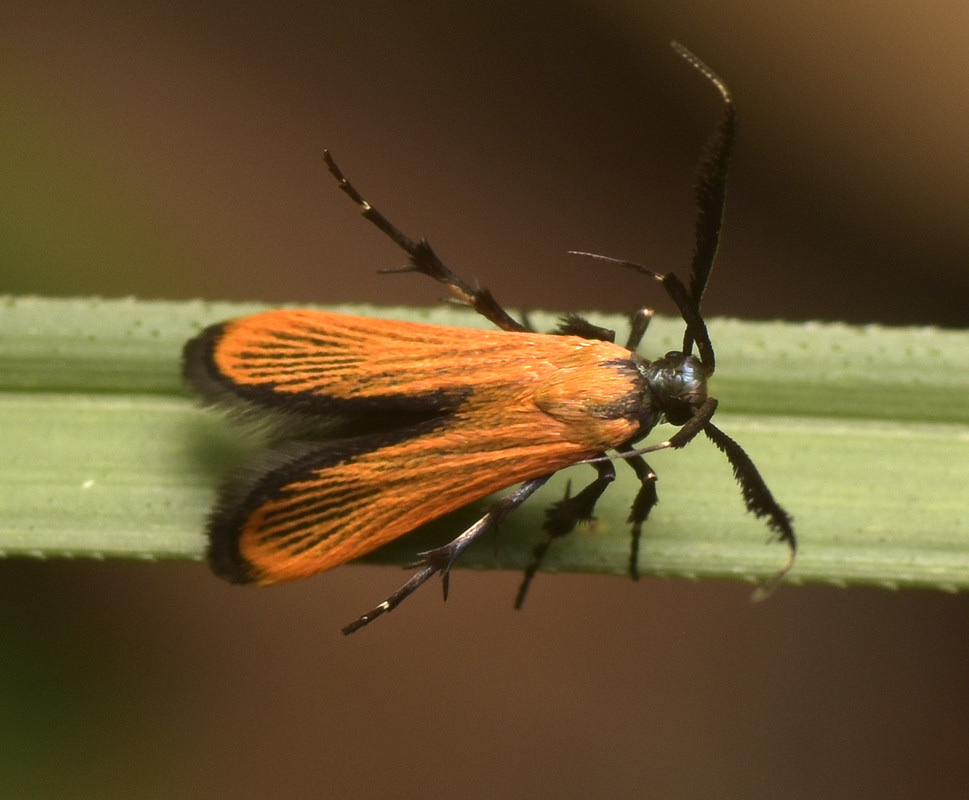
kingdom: Animalia
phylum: Arthropoda
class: Insecta
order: Lepidoptera
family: Stathmopodidae
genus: Snellenia
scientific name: Snellenia lineata
